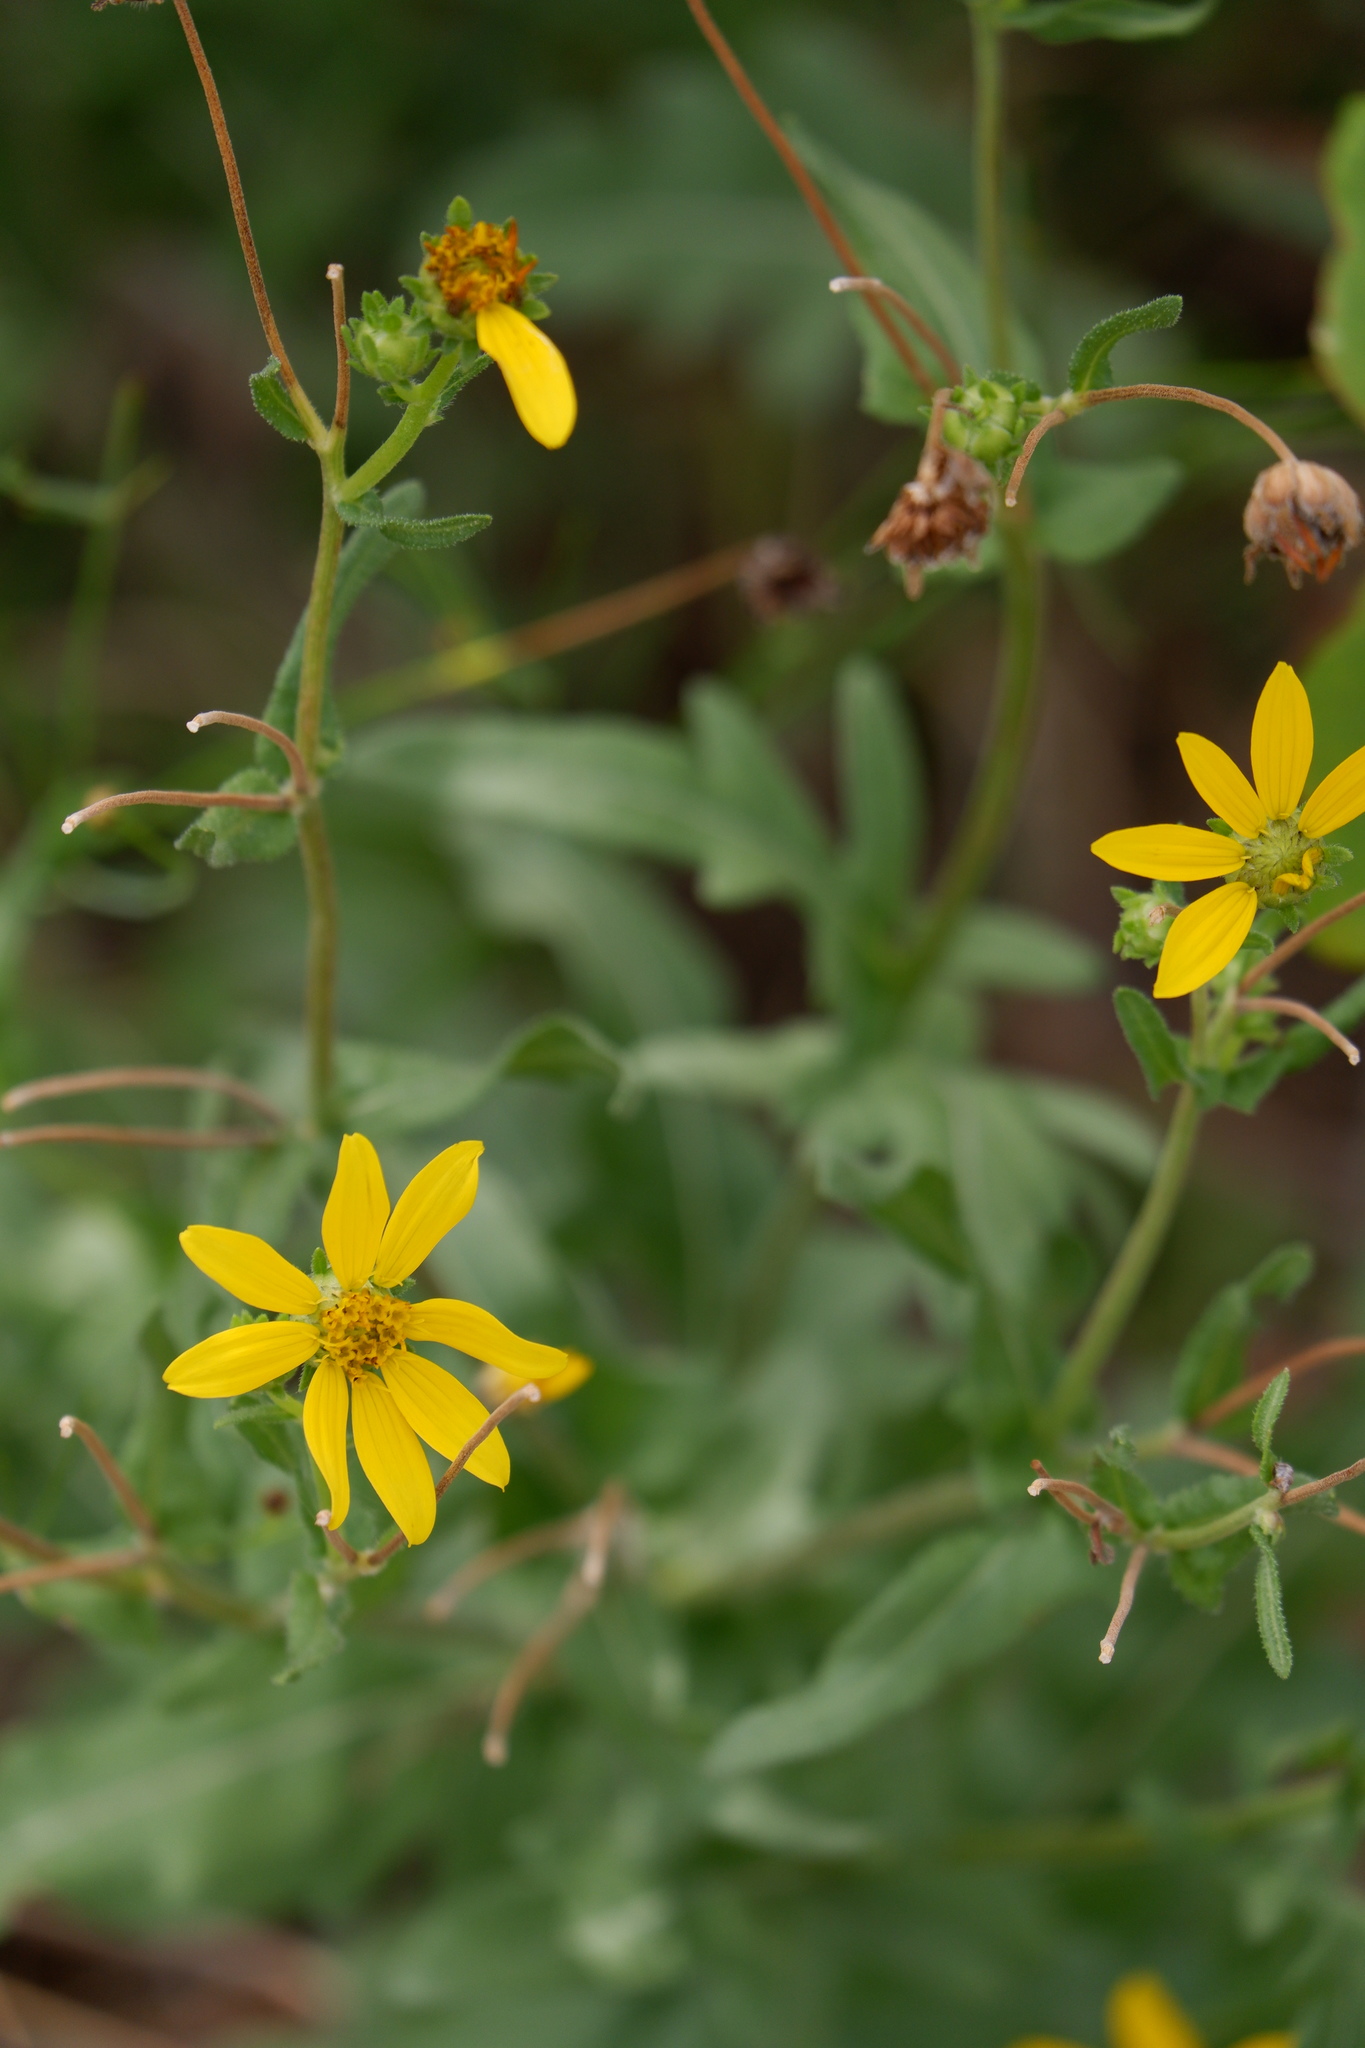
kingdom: Plantae
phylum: Tracheophyta
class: Magnoliopsida
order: Asterales
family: Asteraceae
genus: Engelmannia
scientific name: Engelmannia peristenia
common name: Engelmann's daisy
